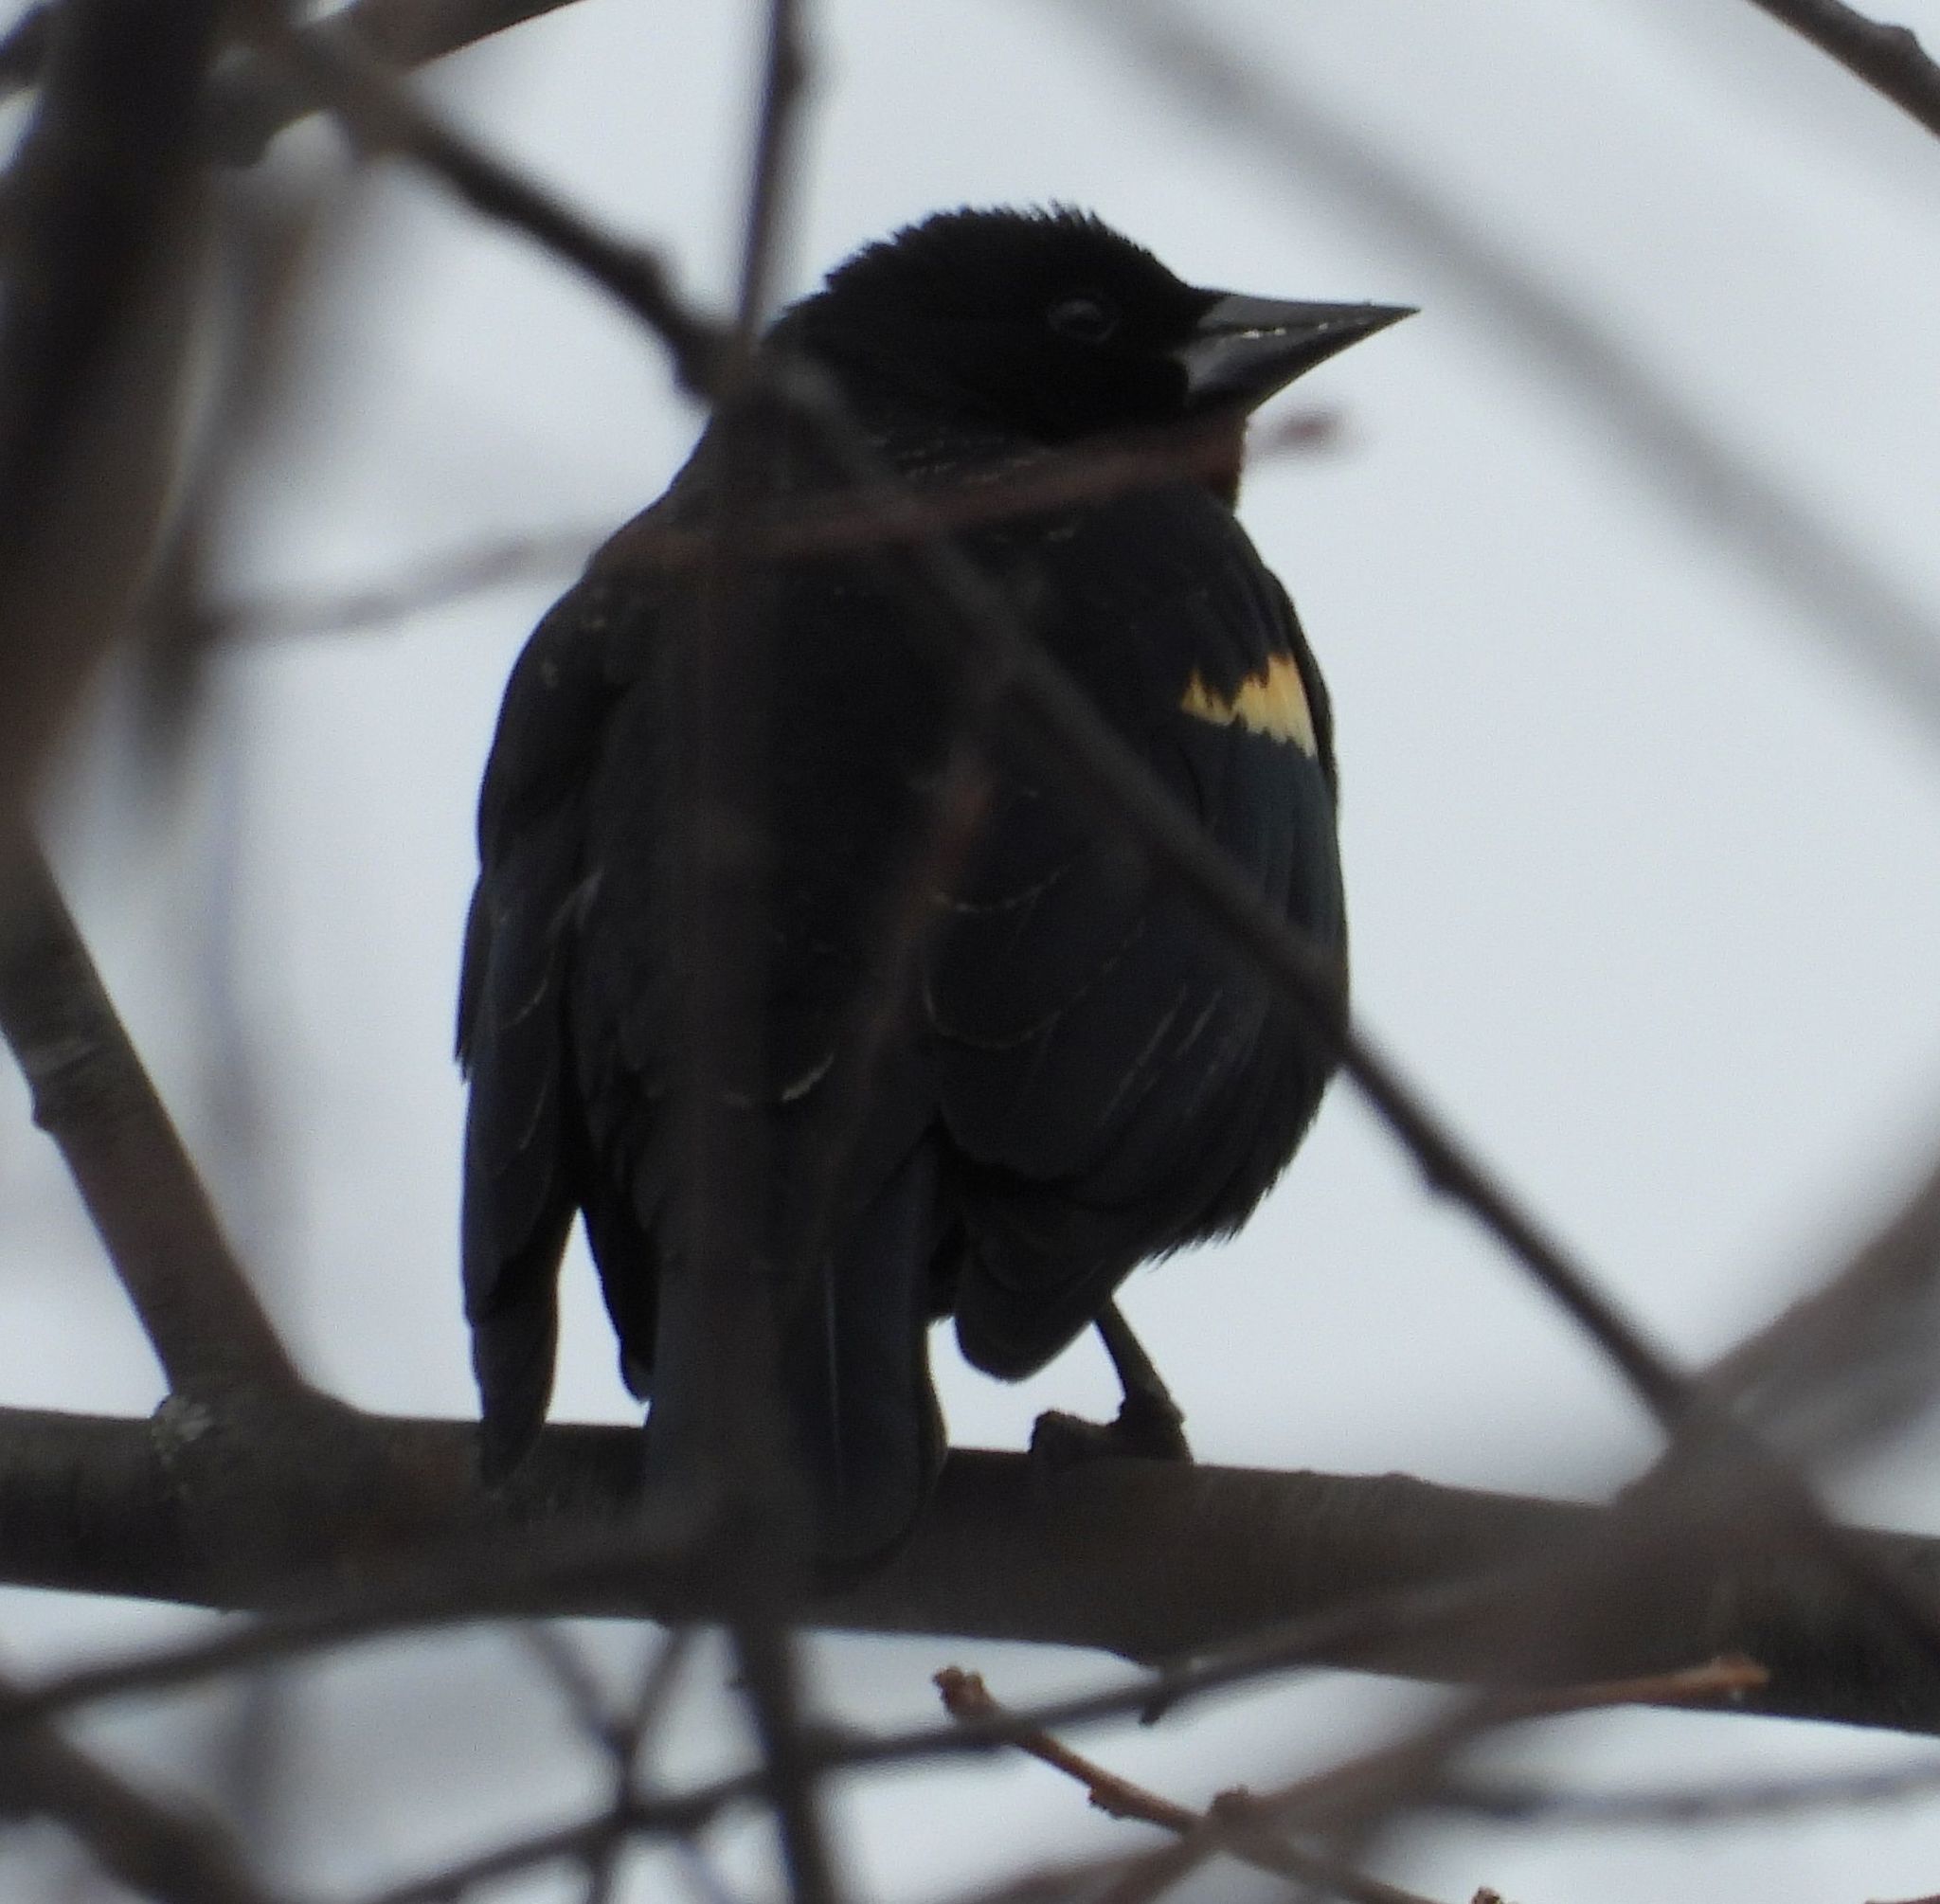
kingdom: Animalia
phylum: Chordata
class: Aves
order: Passeriformes
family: Icteridae
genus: Agelaius
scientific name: Agelaius phoeniceus
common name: Red-winged blackbird
